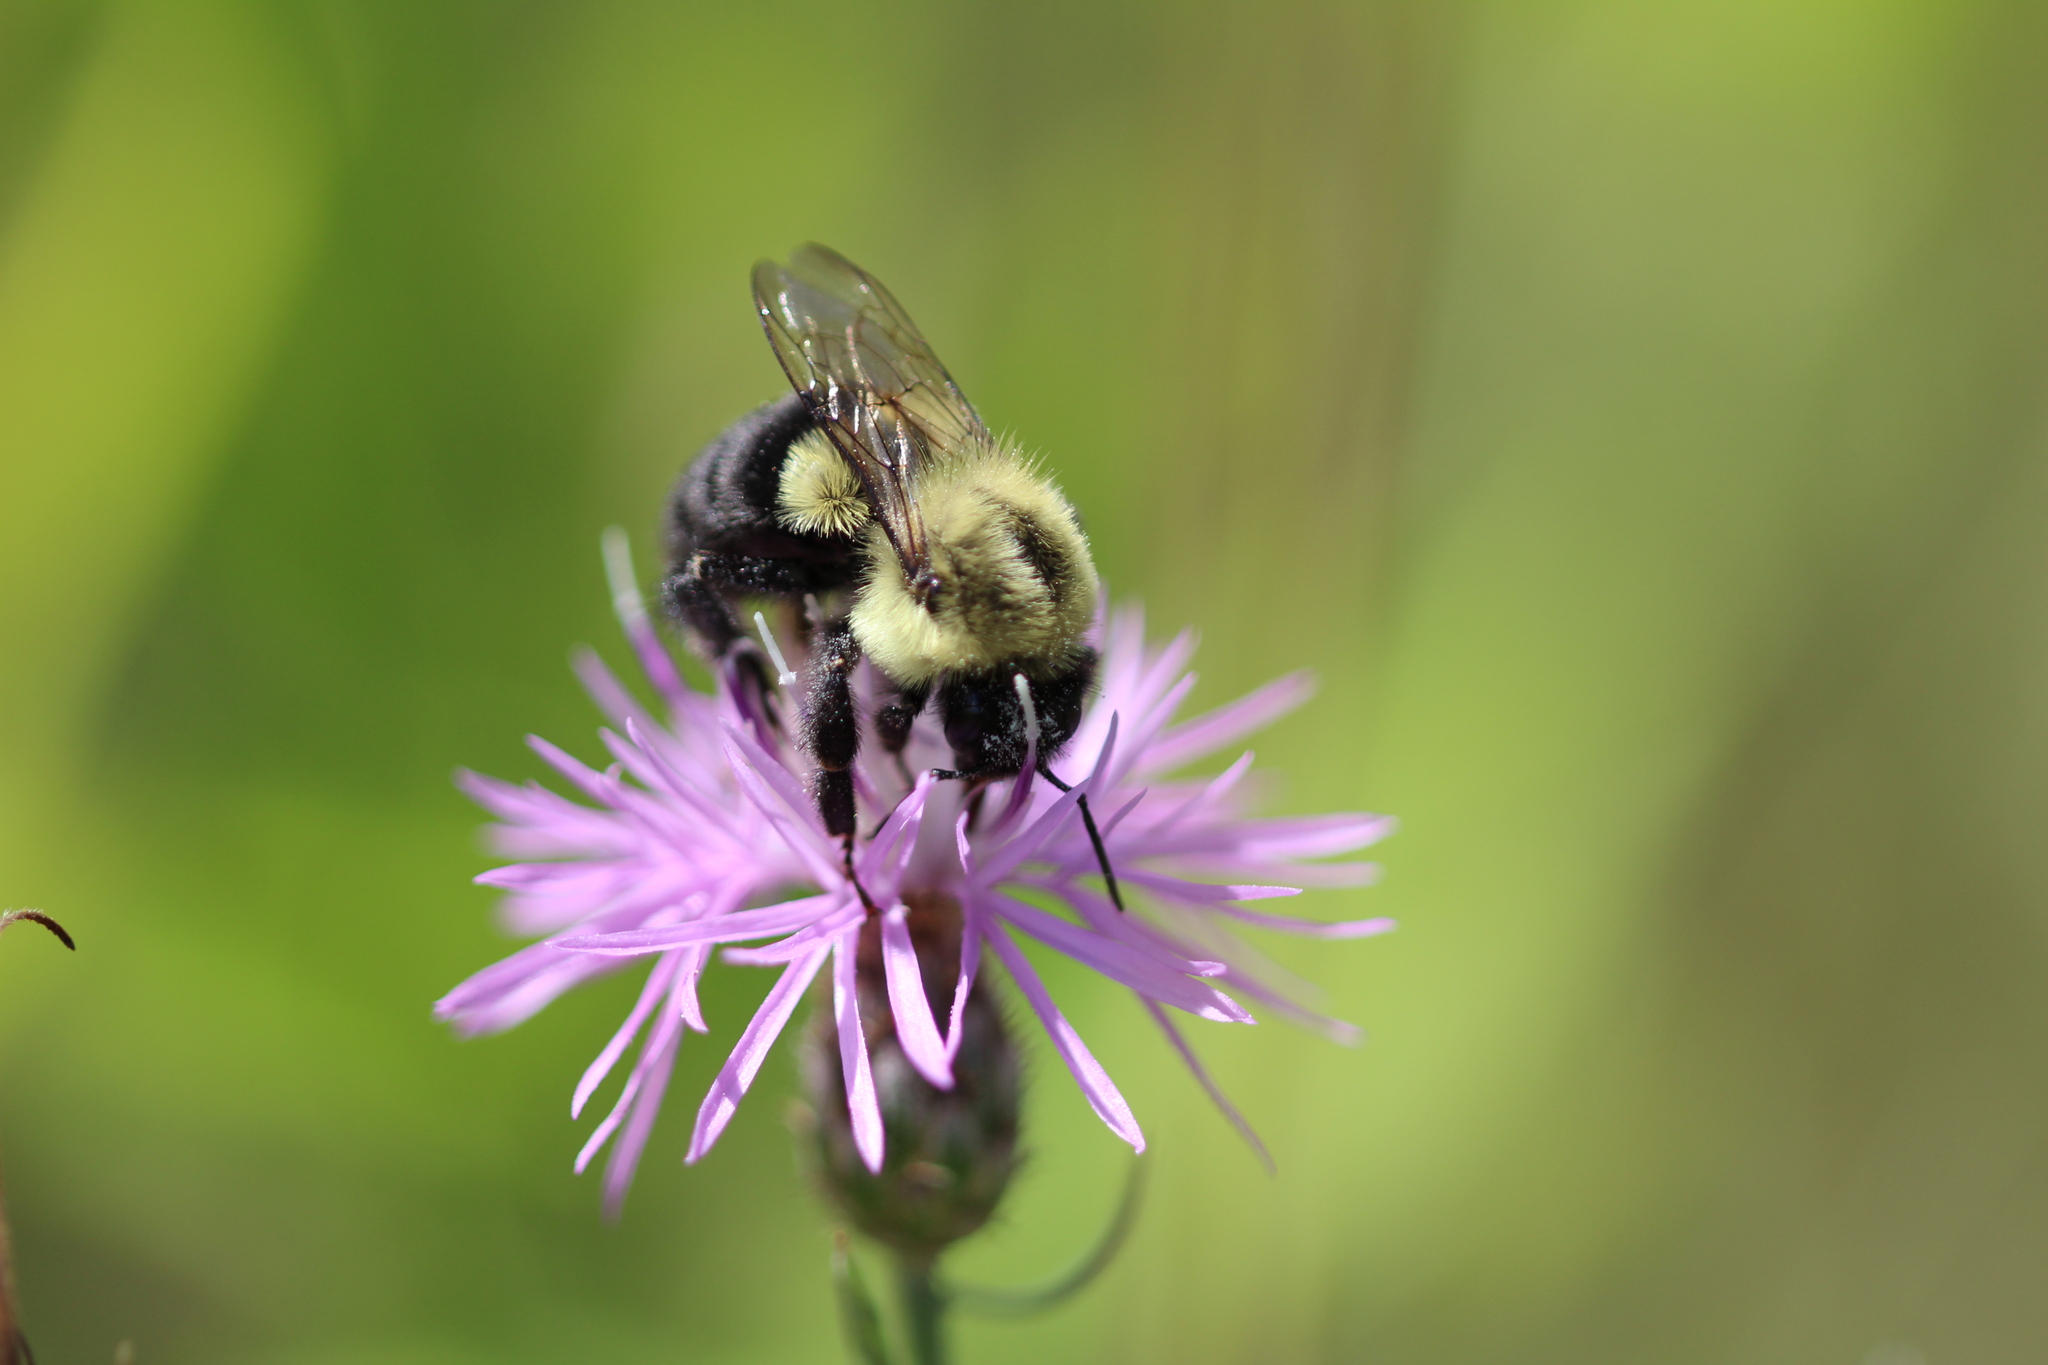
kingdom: Animalia
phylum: Arthropoda
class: Insecta
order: Hymenoptera
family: Apidae
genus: Bombus
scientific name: Bombus impatiens
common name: Common eastern bumble bee
